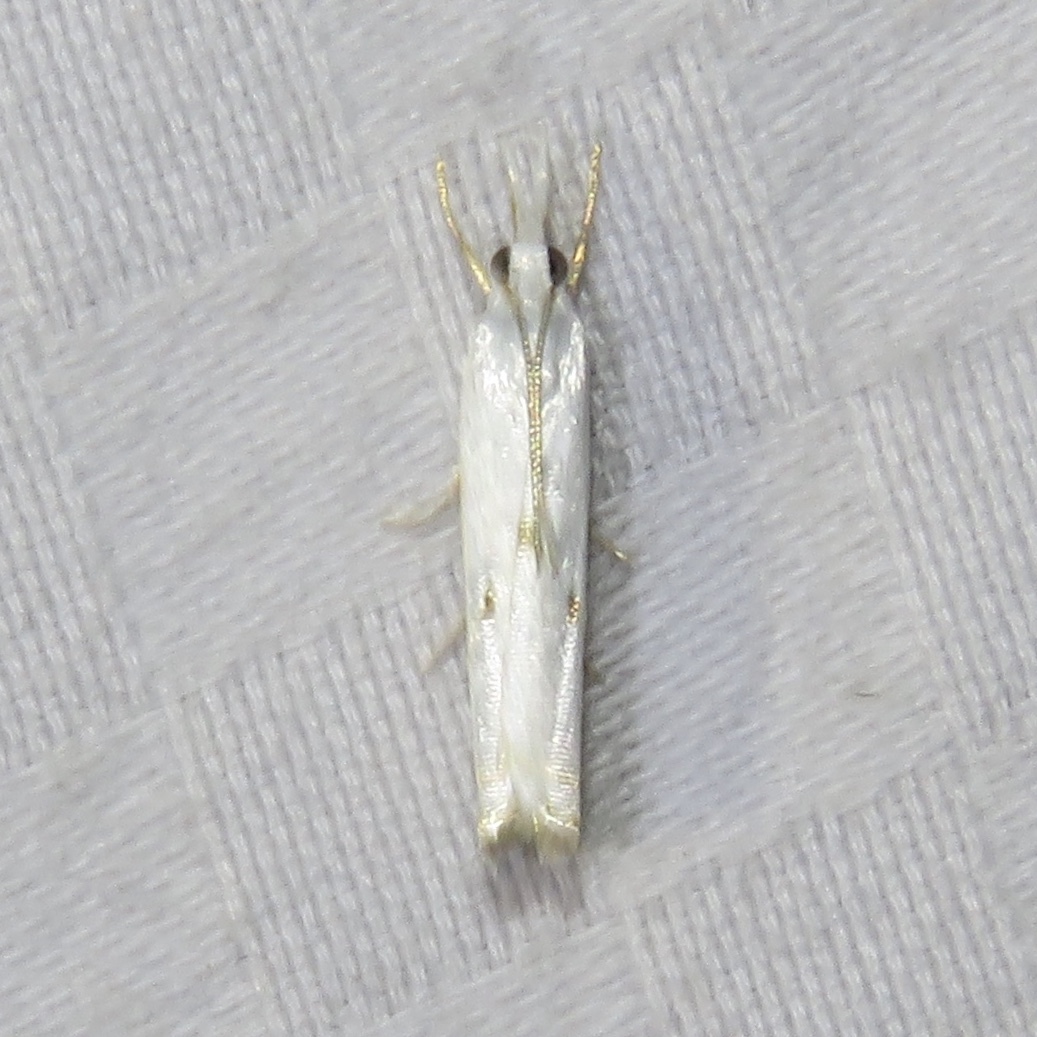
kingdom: Animalia
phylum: Arthropoda
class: Insecta
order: Lepidoptera
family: Crambidae
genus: Microcrambus
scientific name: Microcrambus biguttellus
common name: Gold-stripe grass-veneer moth
